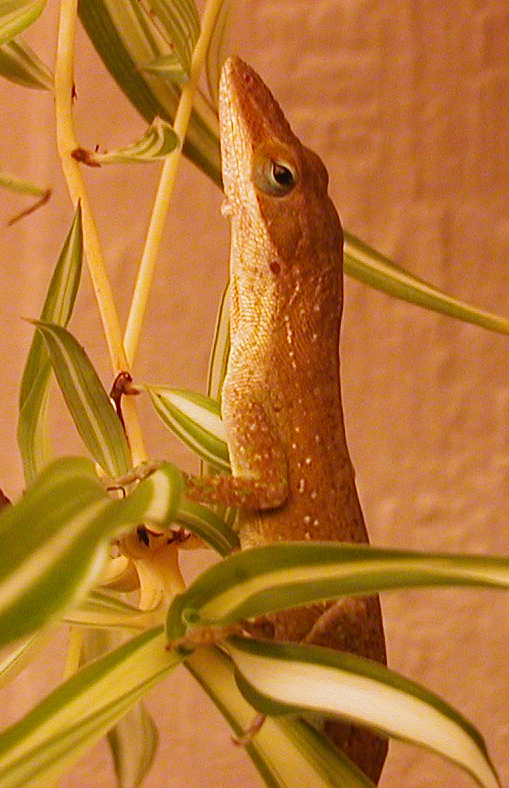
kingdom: Animalia
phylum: Chordata
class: Squamata
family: Dactyloidae
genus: Anolis
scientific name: Anolis carolinensis
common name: Green anole
